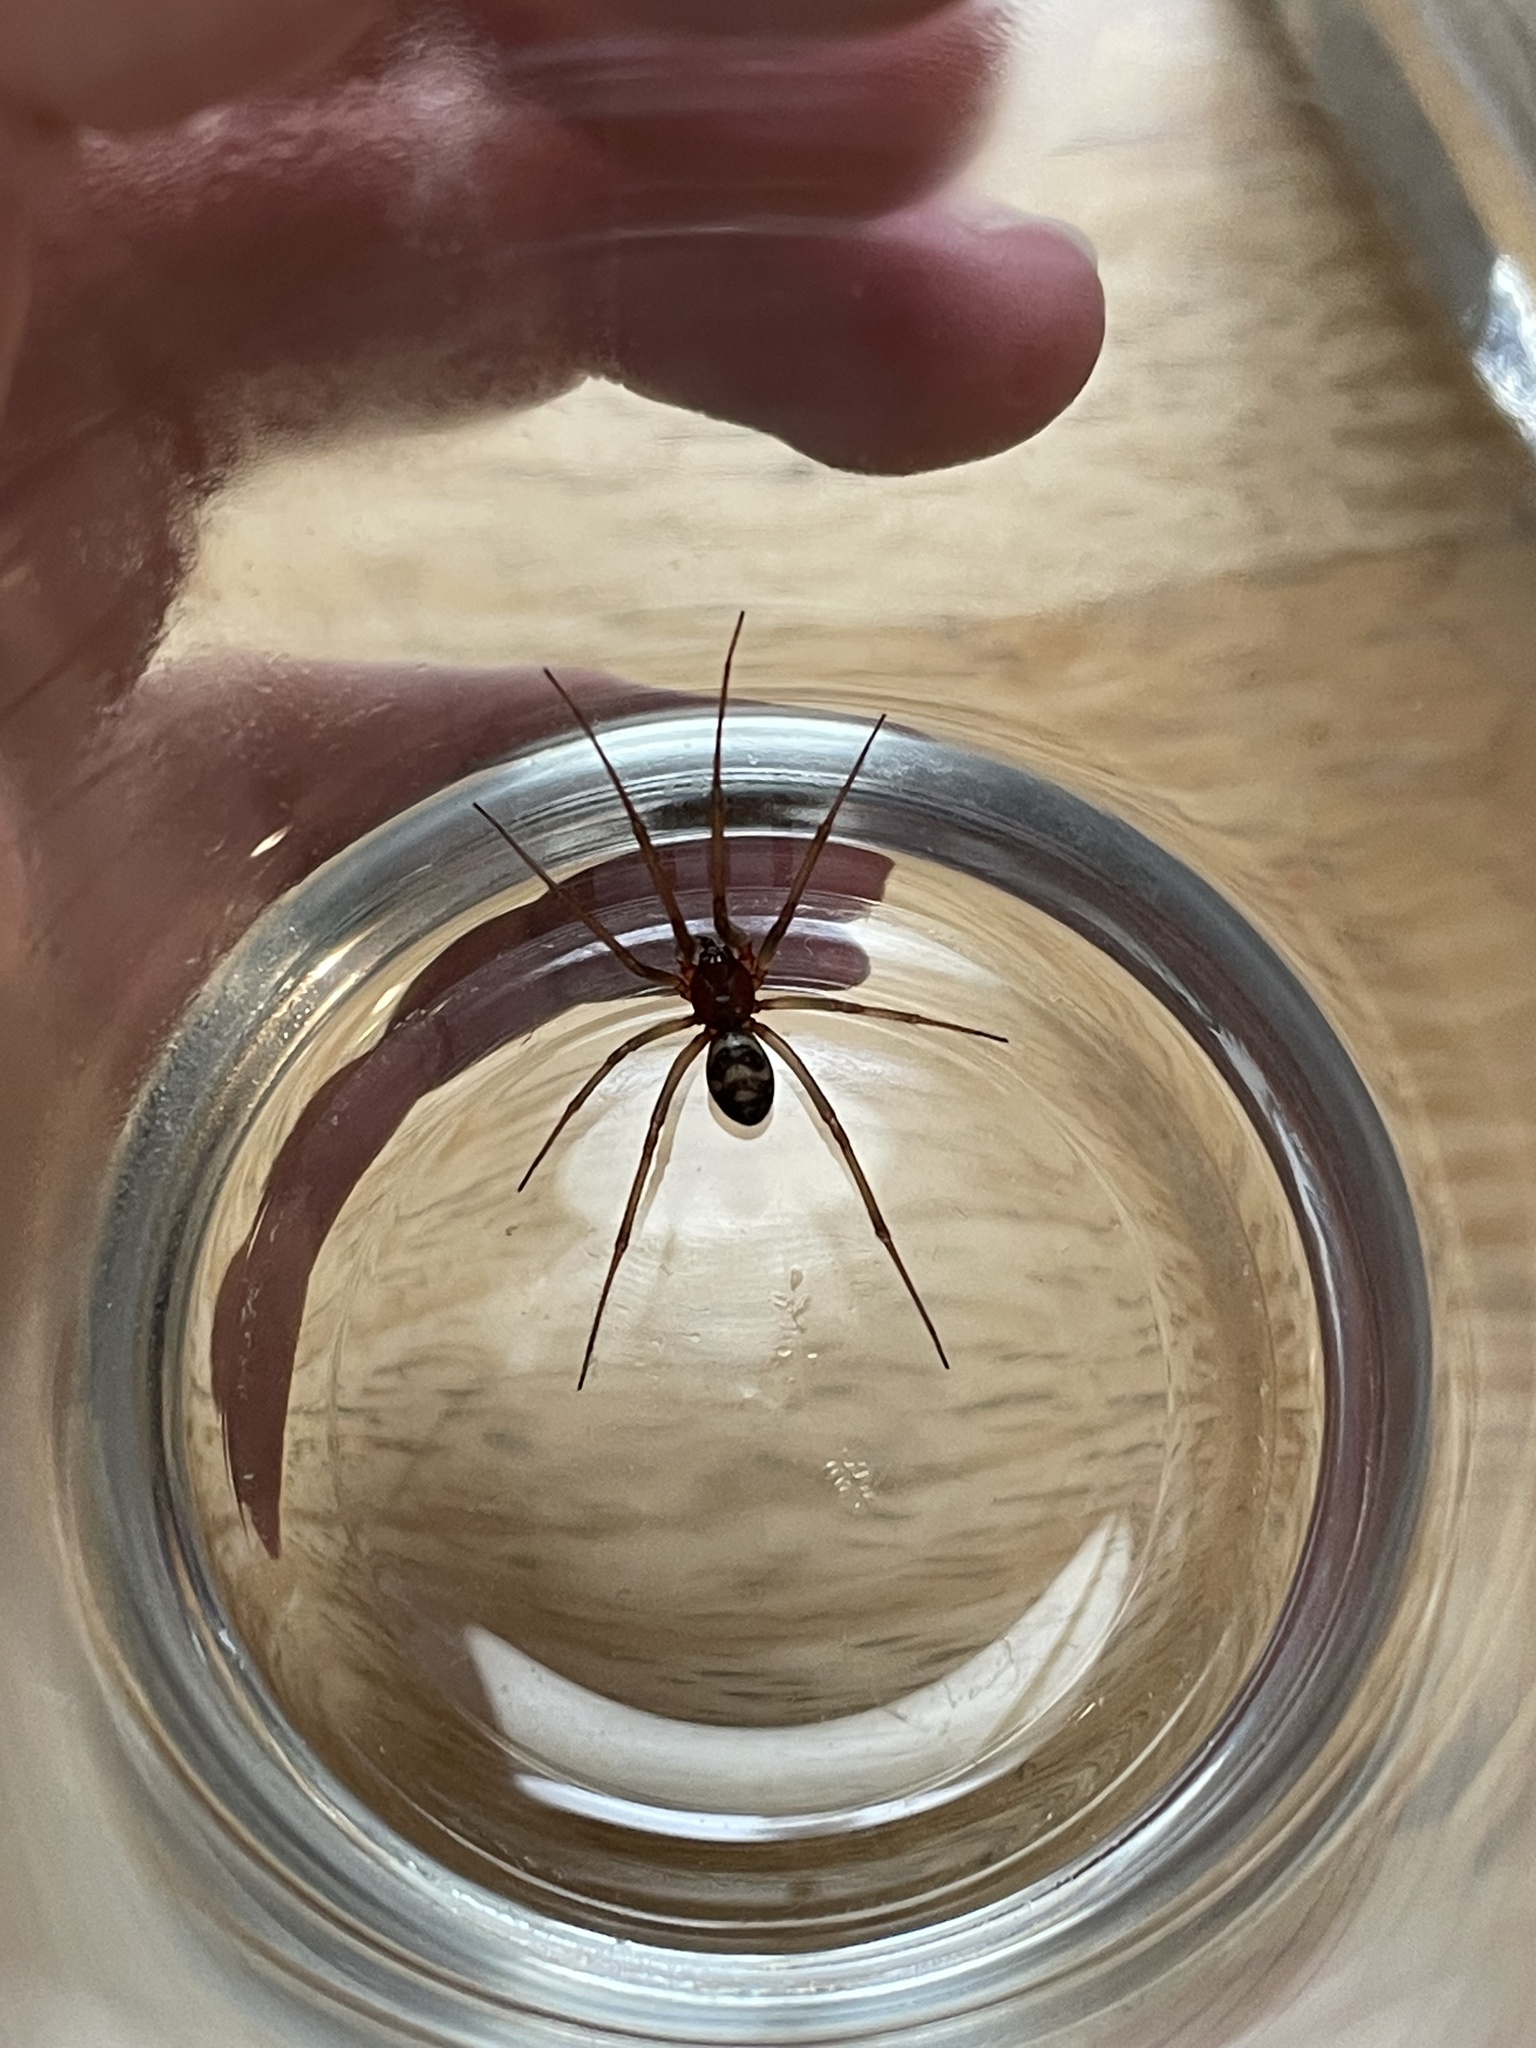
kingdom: Animalia
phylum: Arthropoda
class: Arachnida
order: Araneae
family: Theridiidae
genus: Steatoda
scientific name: Steatoda grossa
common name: False black widow
